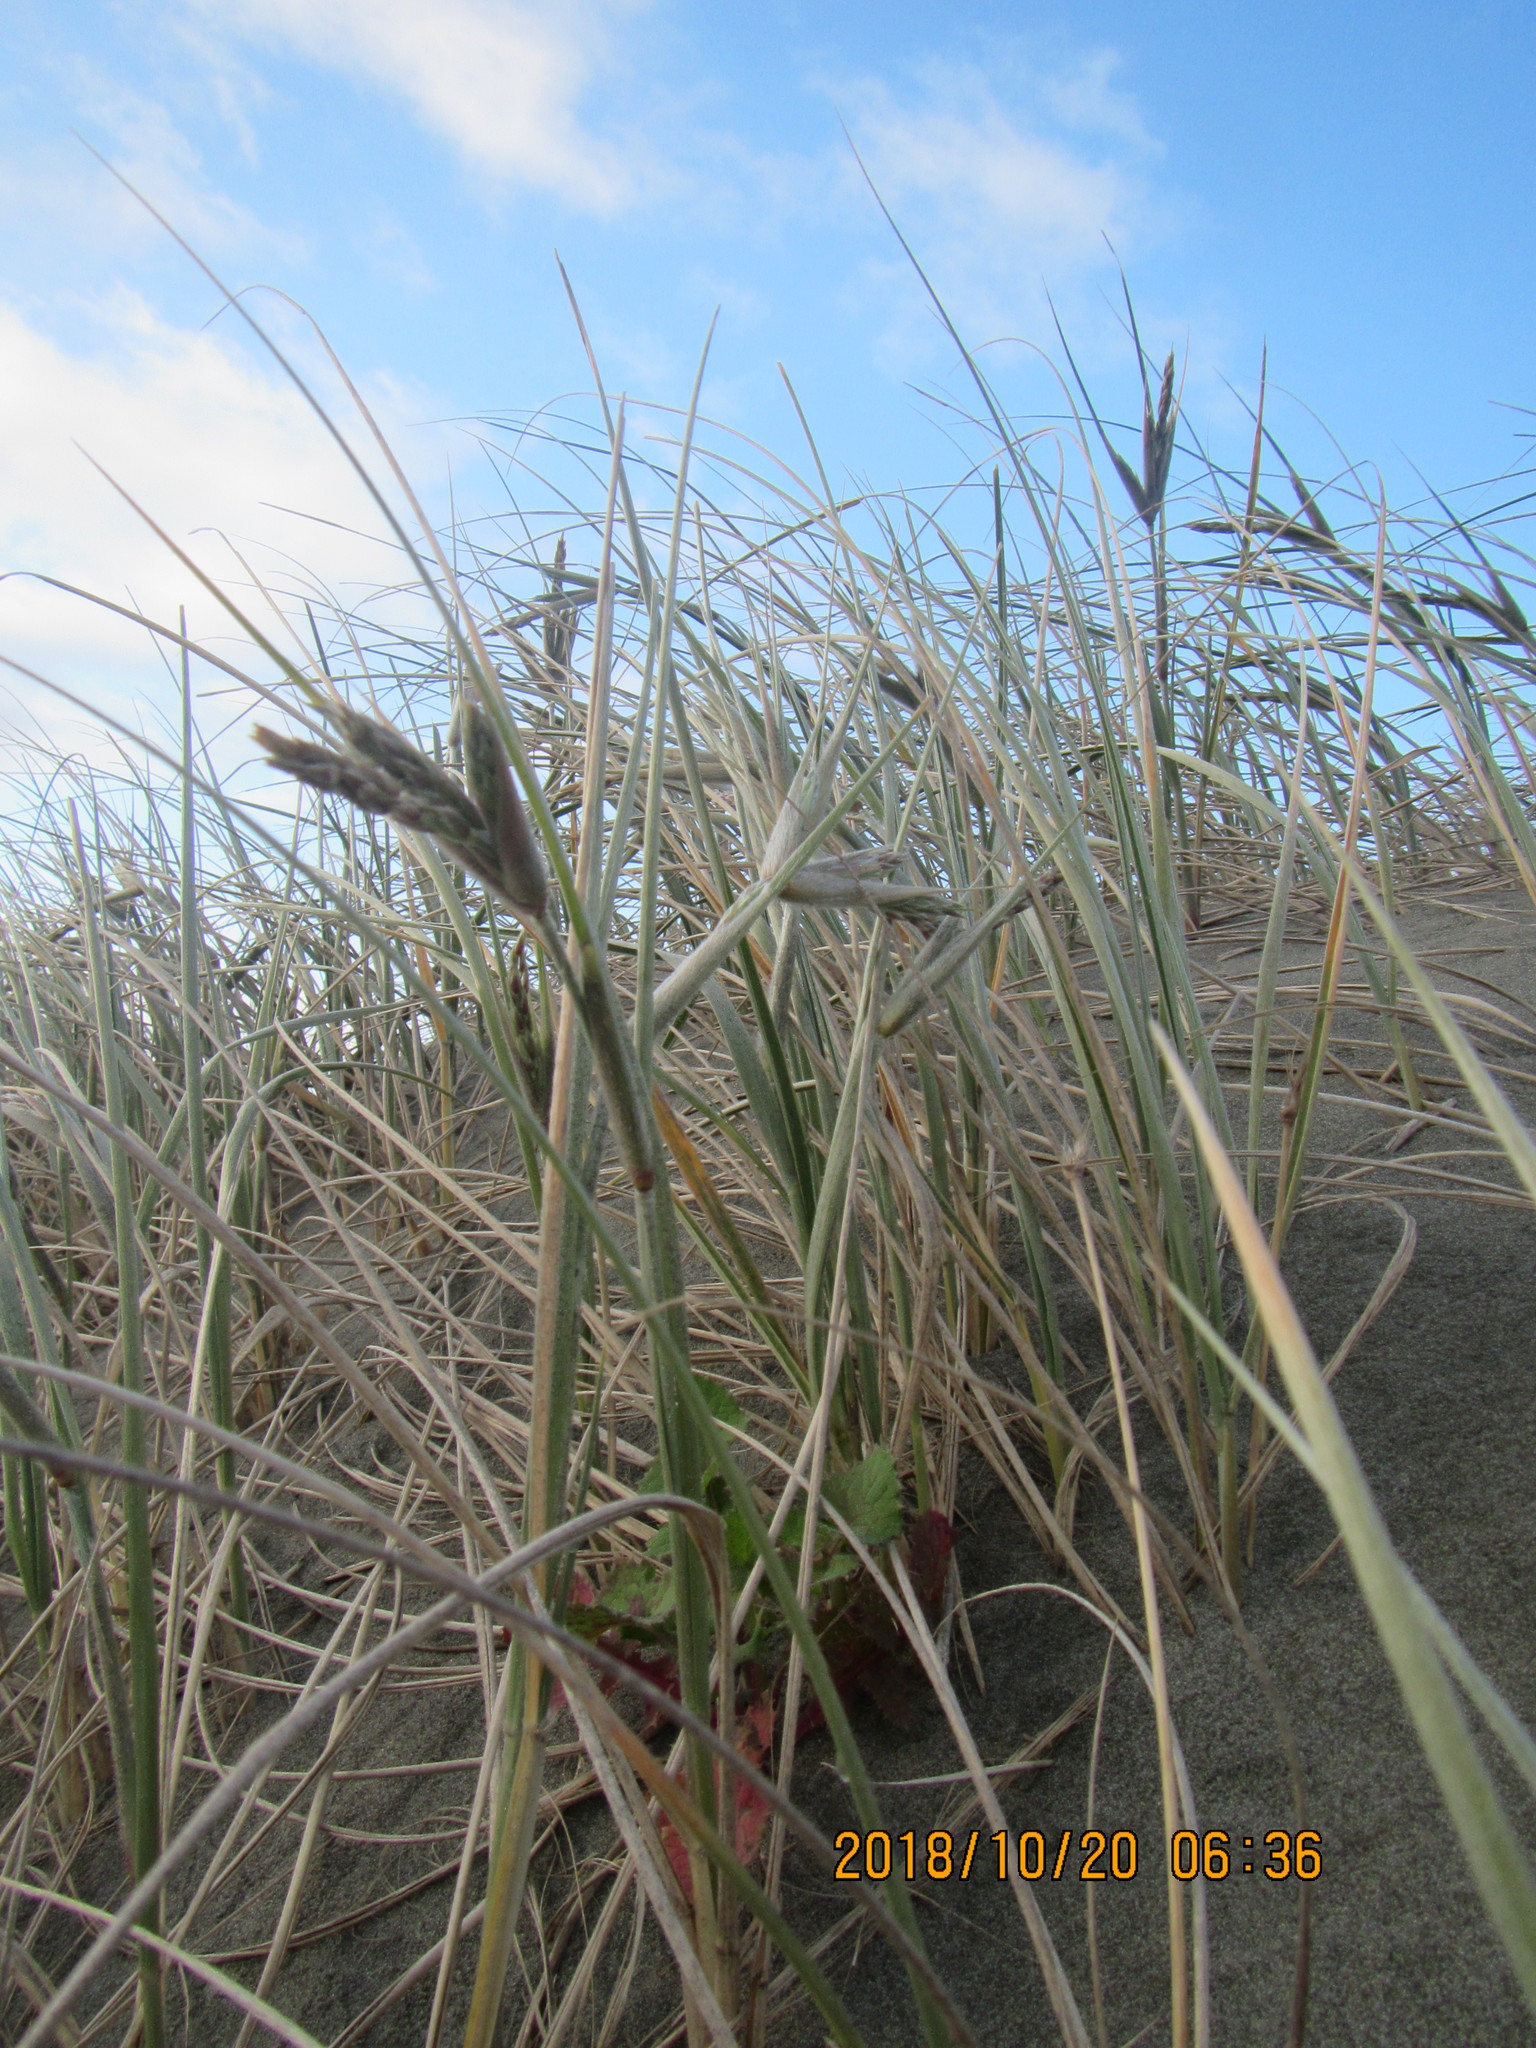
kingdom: Plantae
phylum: Tracheophyta
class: Liliopsida
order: Poales
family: Poaceae
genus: Spinifex
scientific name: Spinifex sericeus
